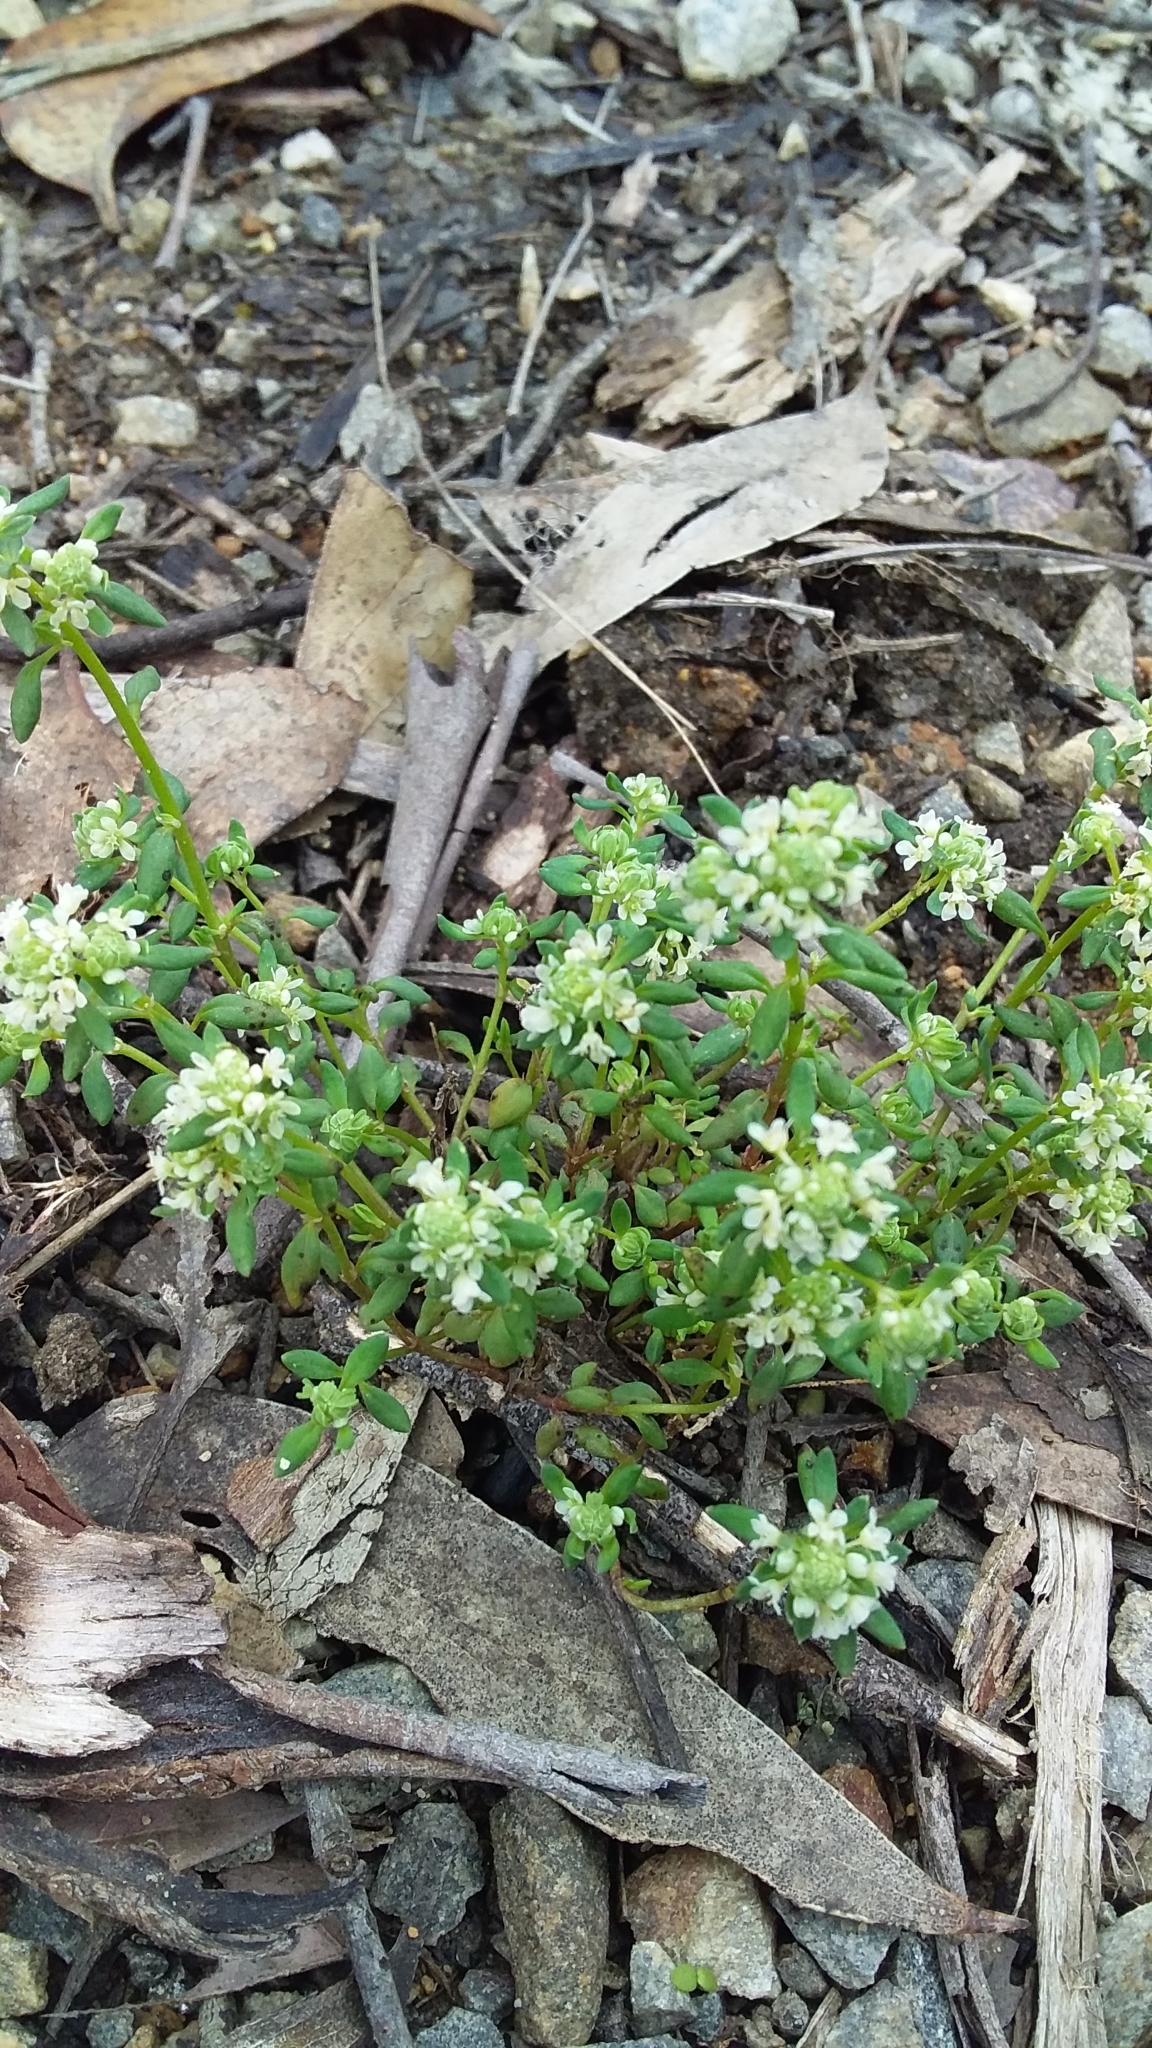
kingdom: Plantae
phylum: Tracheophyta
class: Magnoliopsida
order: Malpighiales
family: Phyllanthaceae
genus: Poranthera
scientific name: Poranthera microphylla
